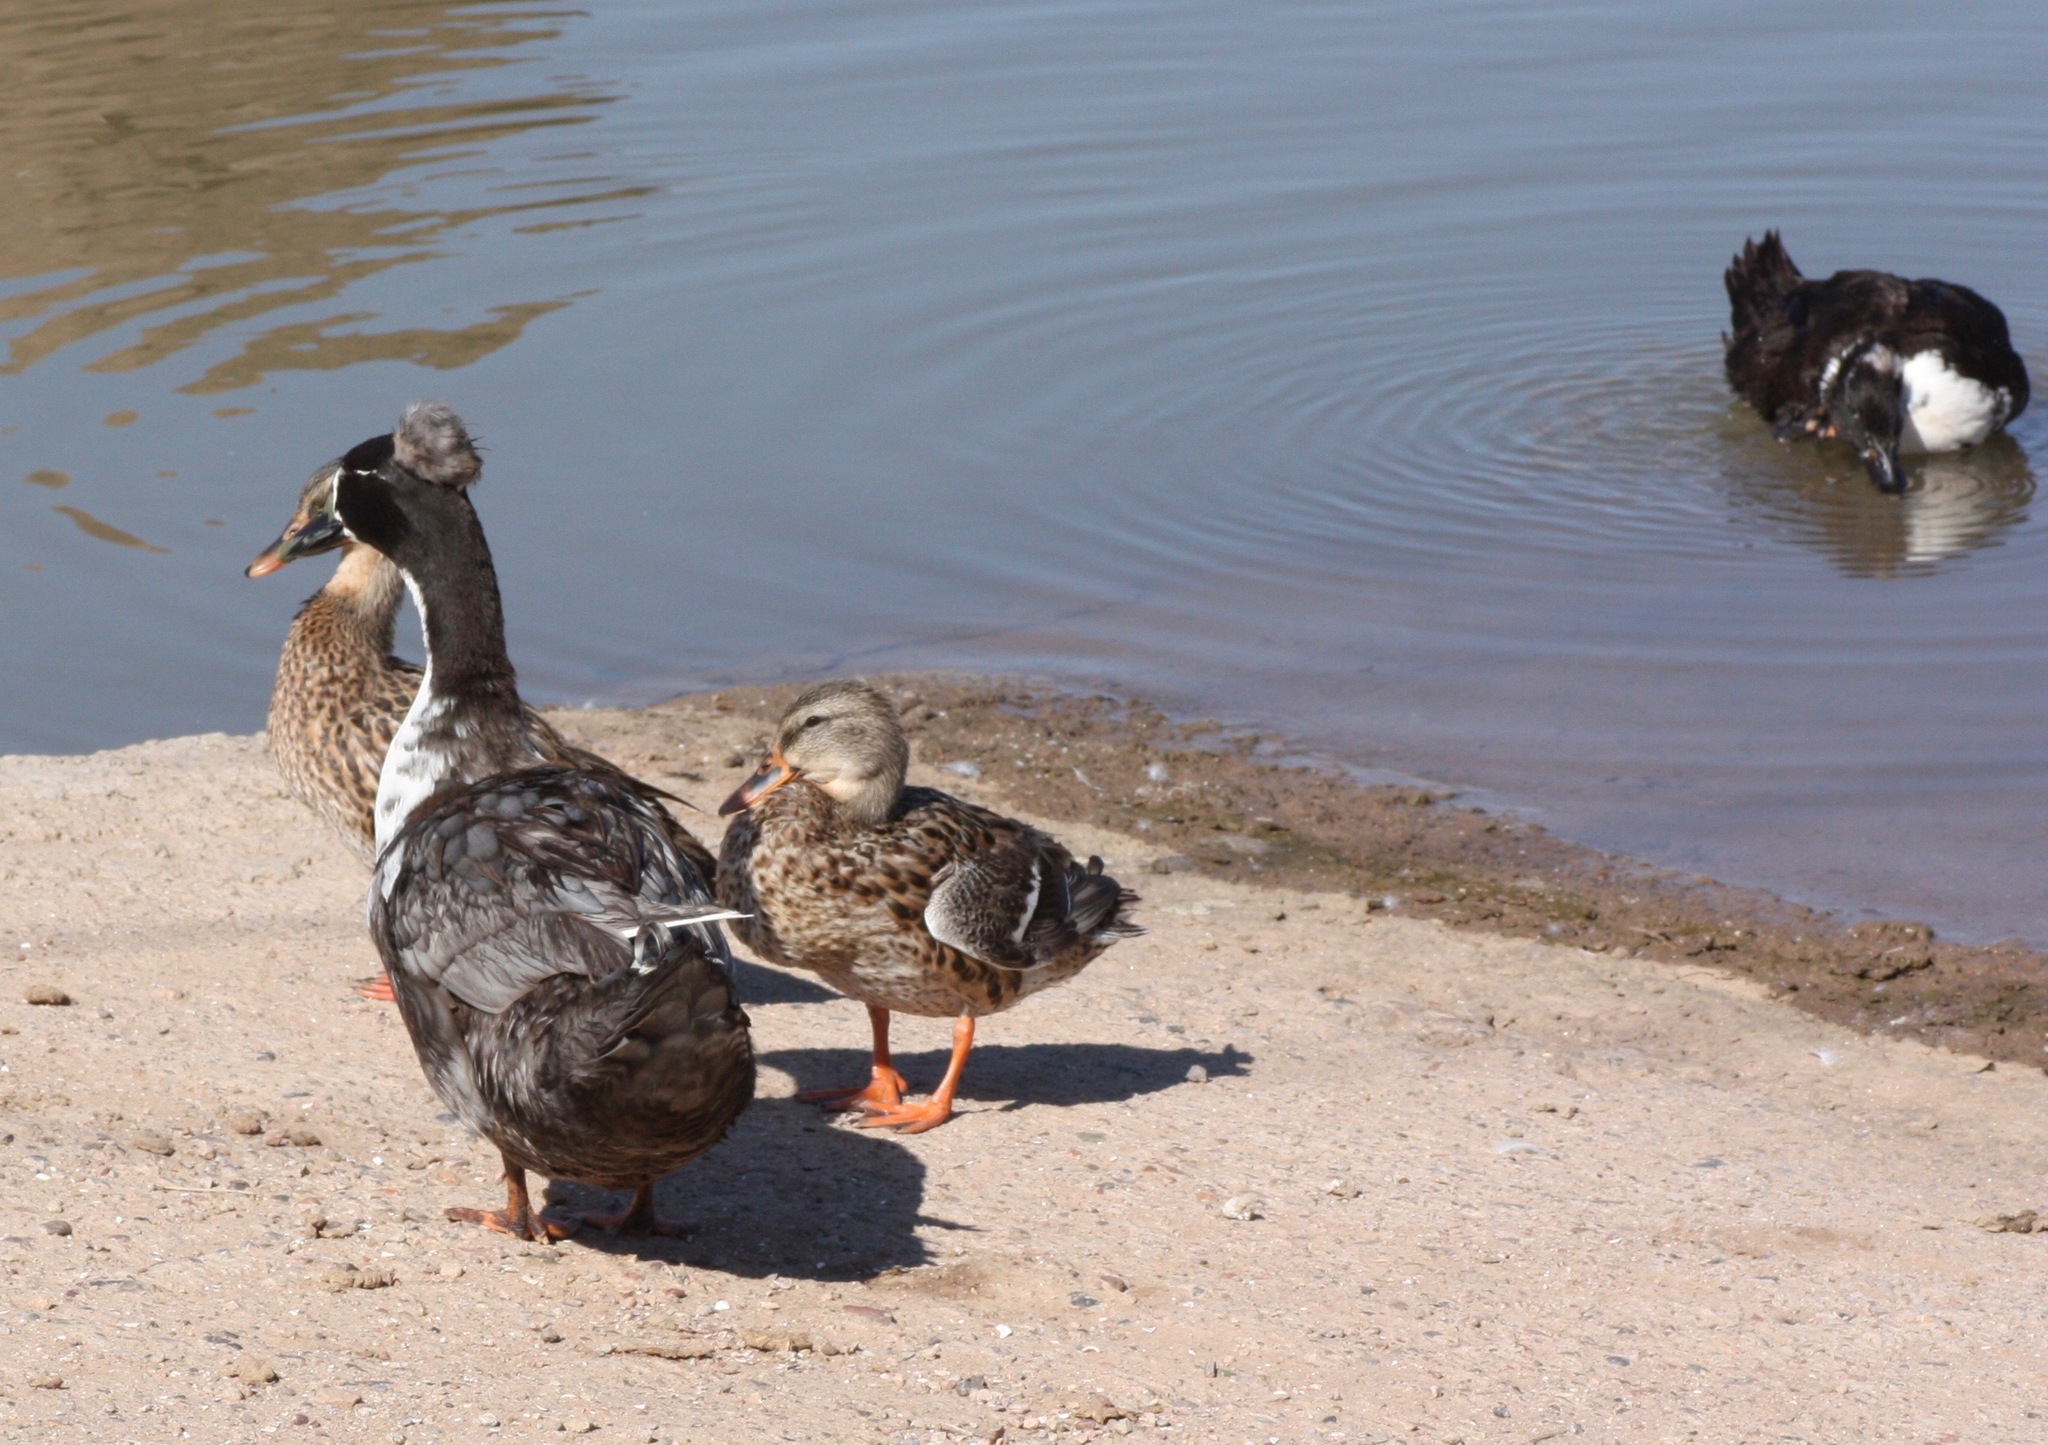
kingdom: Animalia
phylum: Chordata
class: Aves
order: Anseriformes
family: Anatidae
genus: Anas
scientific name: Anas platyrhynchos
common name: Mallard
